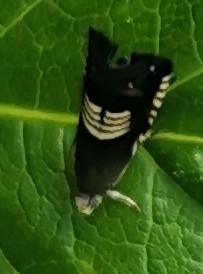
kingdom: Animalia
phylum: Arthropoda
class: Insecta
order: Lepidoptera
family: Tortricidae
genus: Grapholita
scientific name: Grapholita compositella
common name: Triple-stripe piercer
